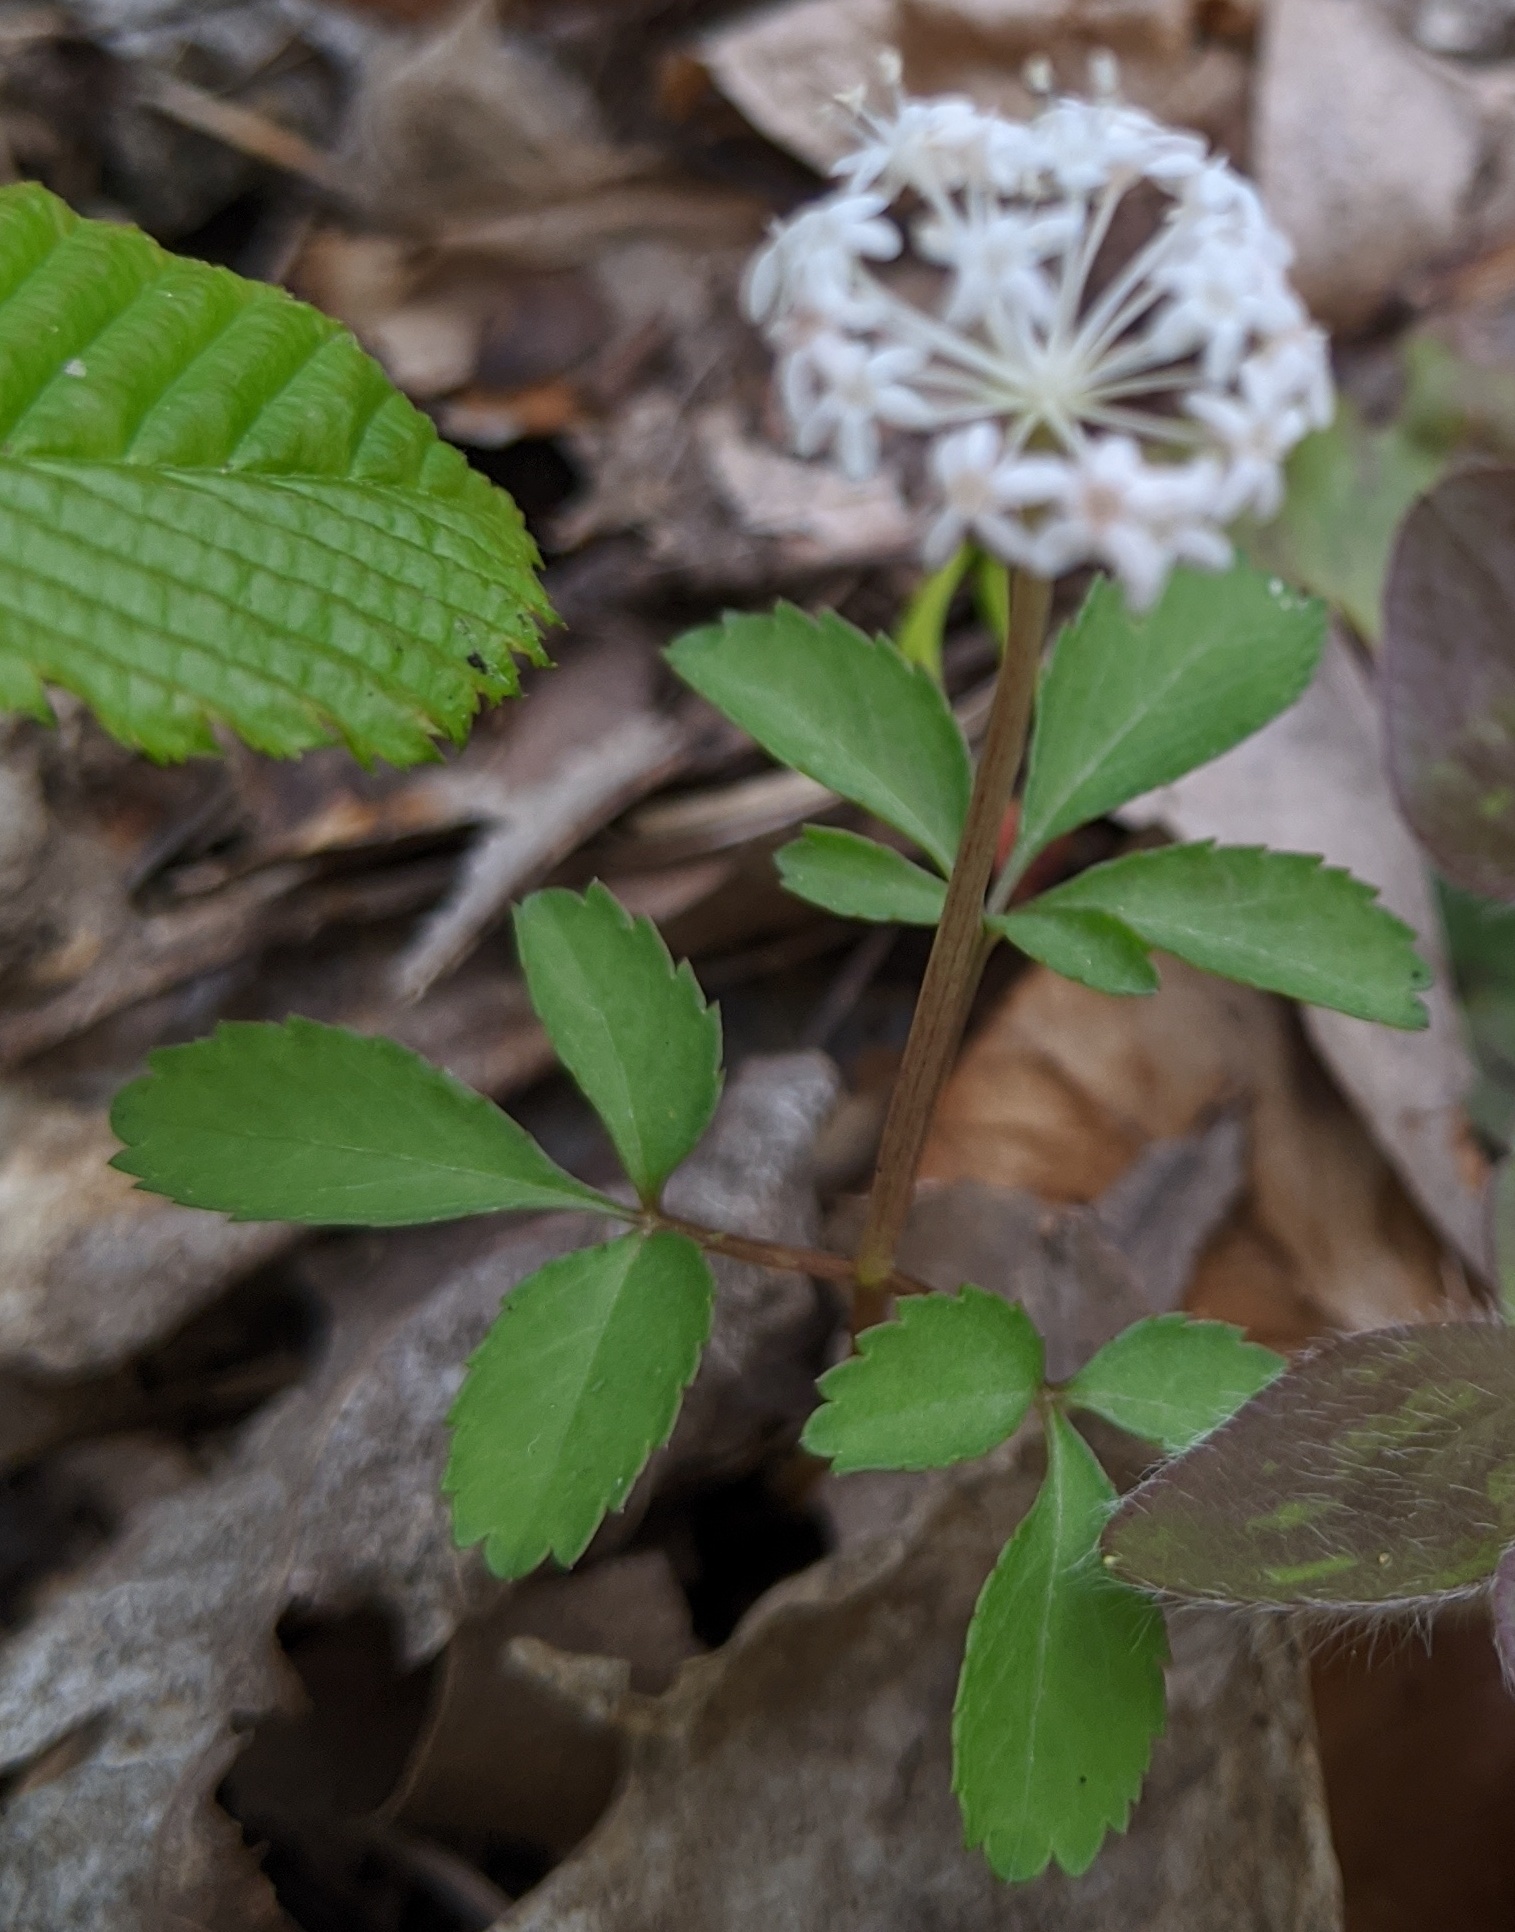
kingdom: Plantae
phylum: Tracheophyta
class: Magnoliopsida
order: Apiales
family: Araliaceae
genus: Panax
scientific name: Panax trifolius
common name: Dwarf ginseng
